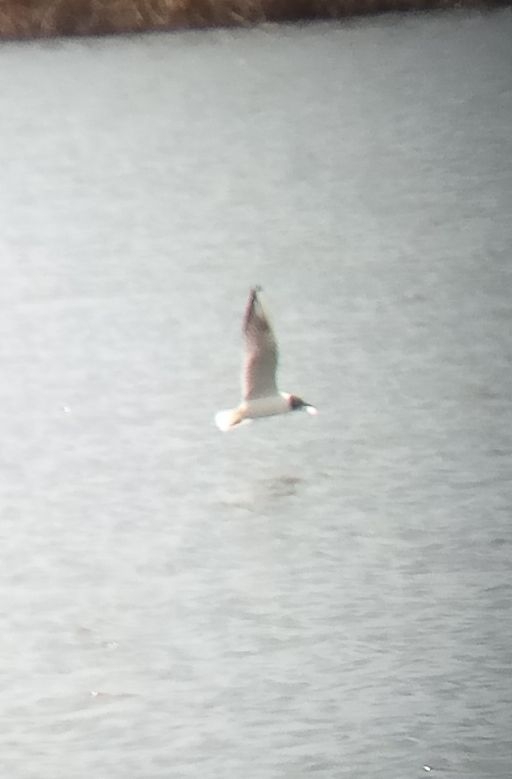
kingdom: Animalia
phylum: Chordata
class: Aves
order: Charadriiformes
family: Laridae
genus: Chroicocephalus
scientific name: Chroicocephalus ridibundus
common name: Black-headed gull
